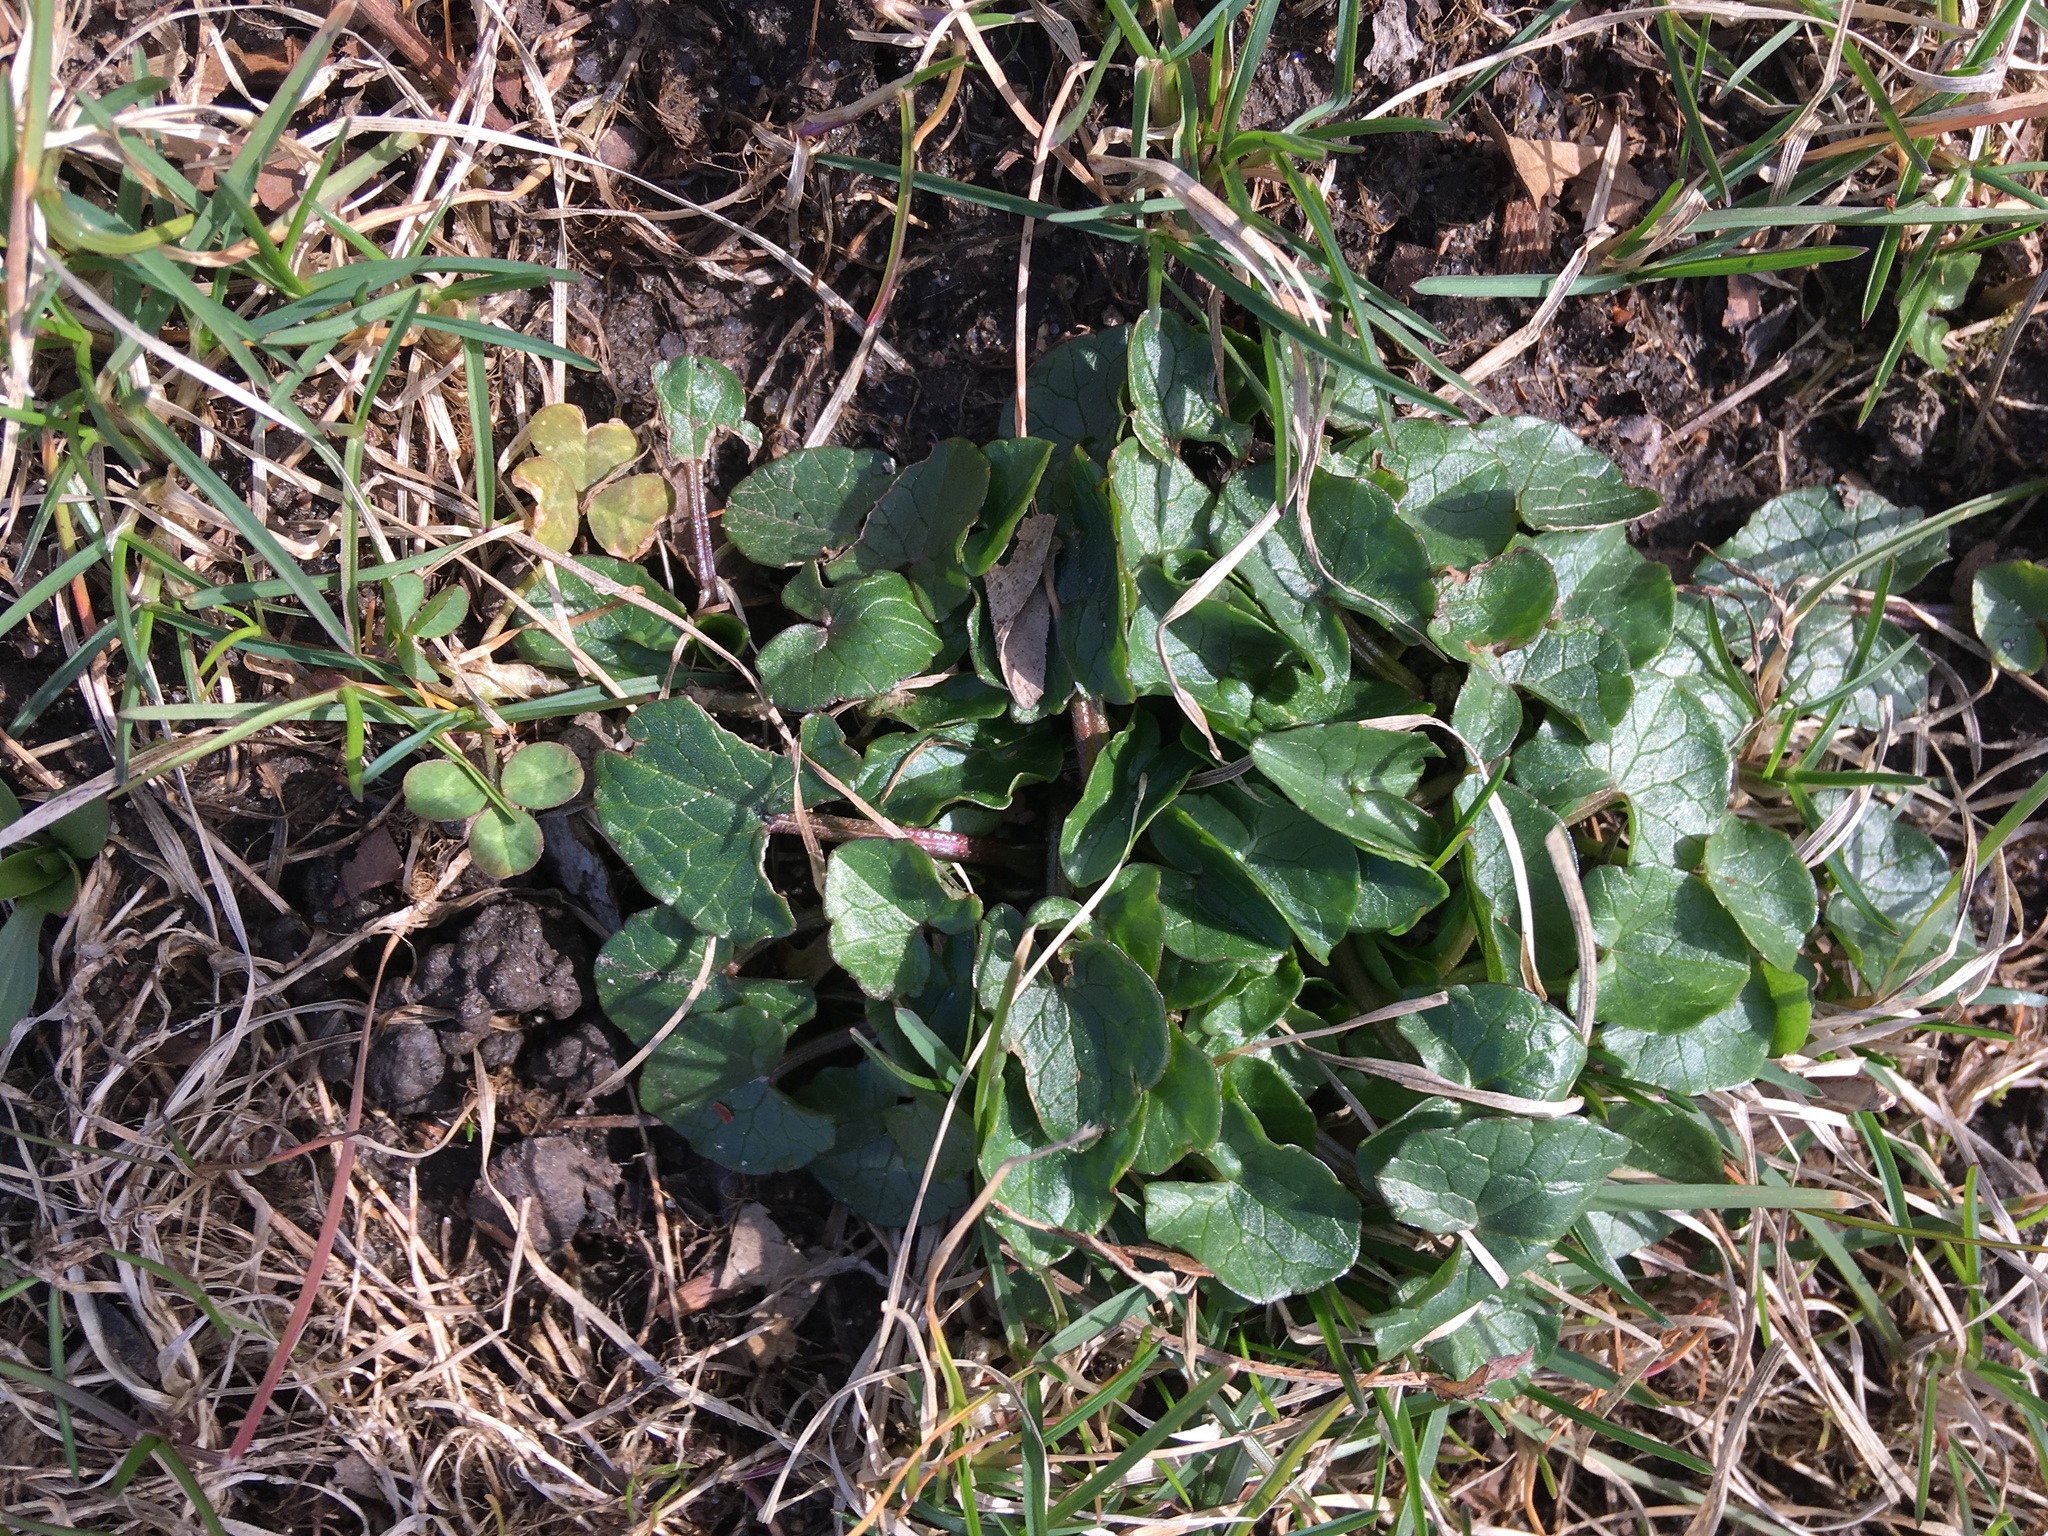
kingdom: Plantae
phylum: Tracheophyta
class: Magnoliopsida
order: Ranunculales
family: Ranunculaceae
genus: Ficaria
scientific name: Ficaria verna
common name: Lesser celandine
